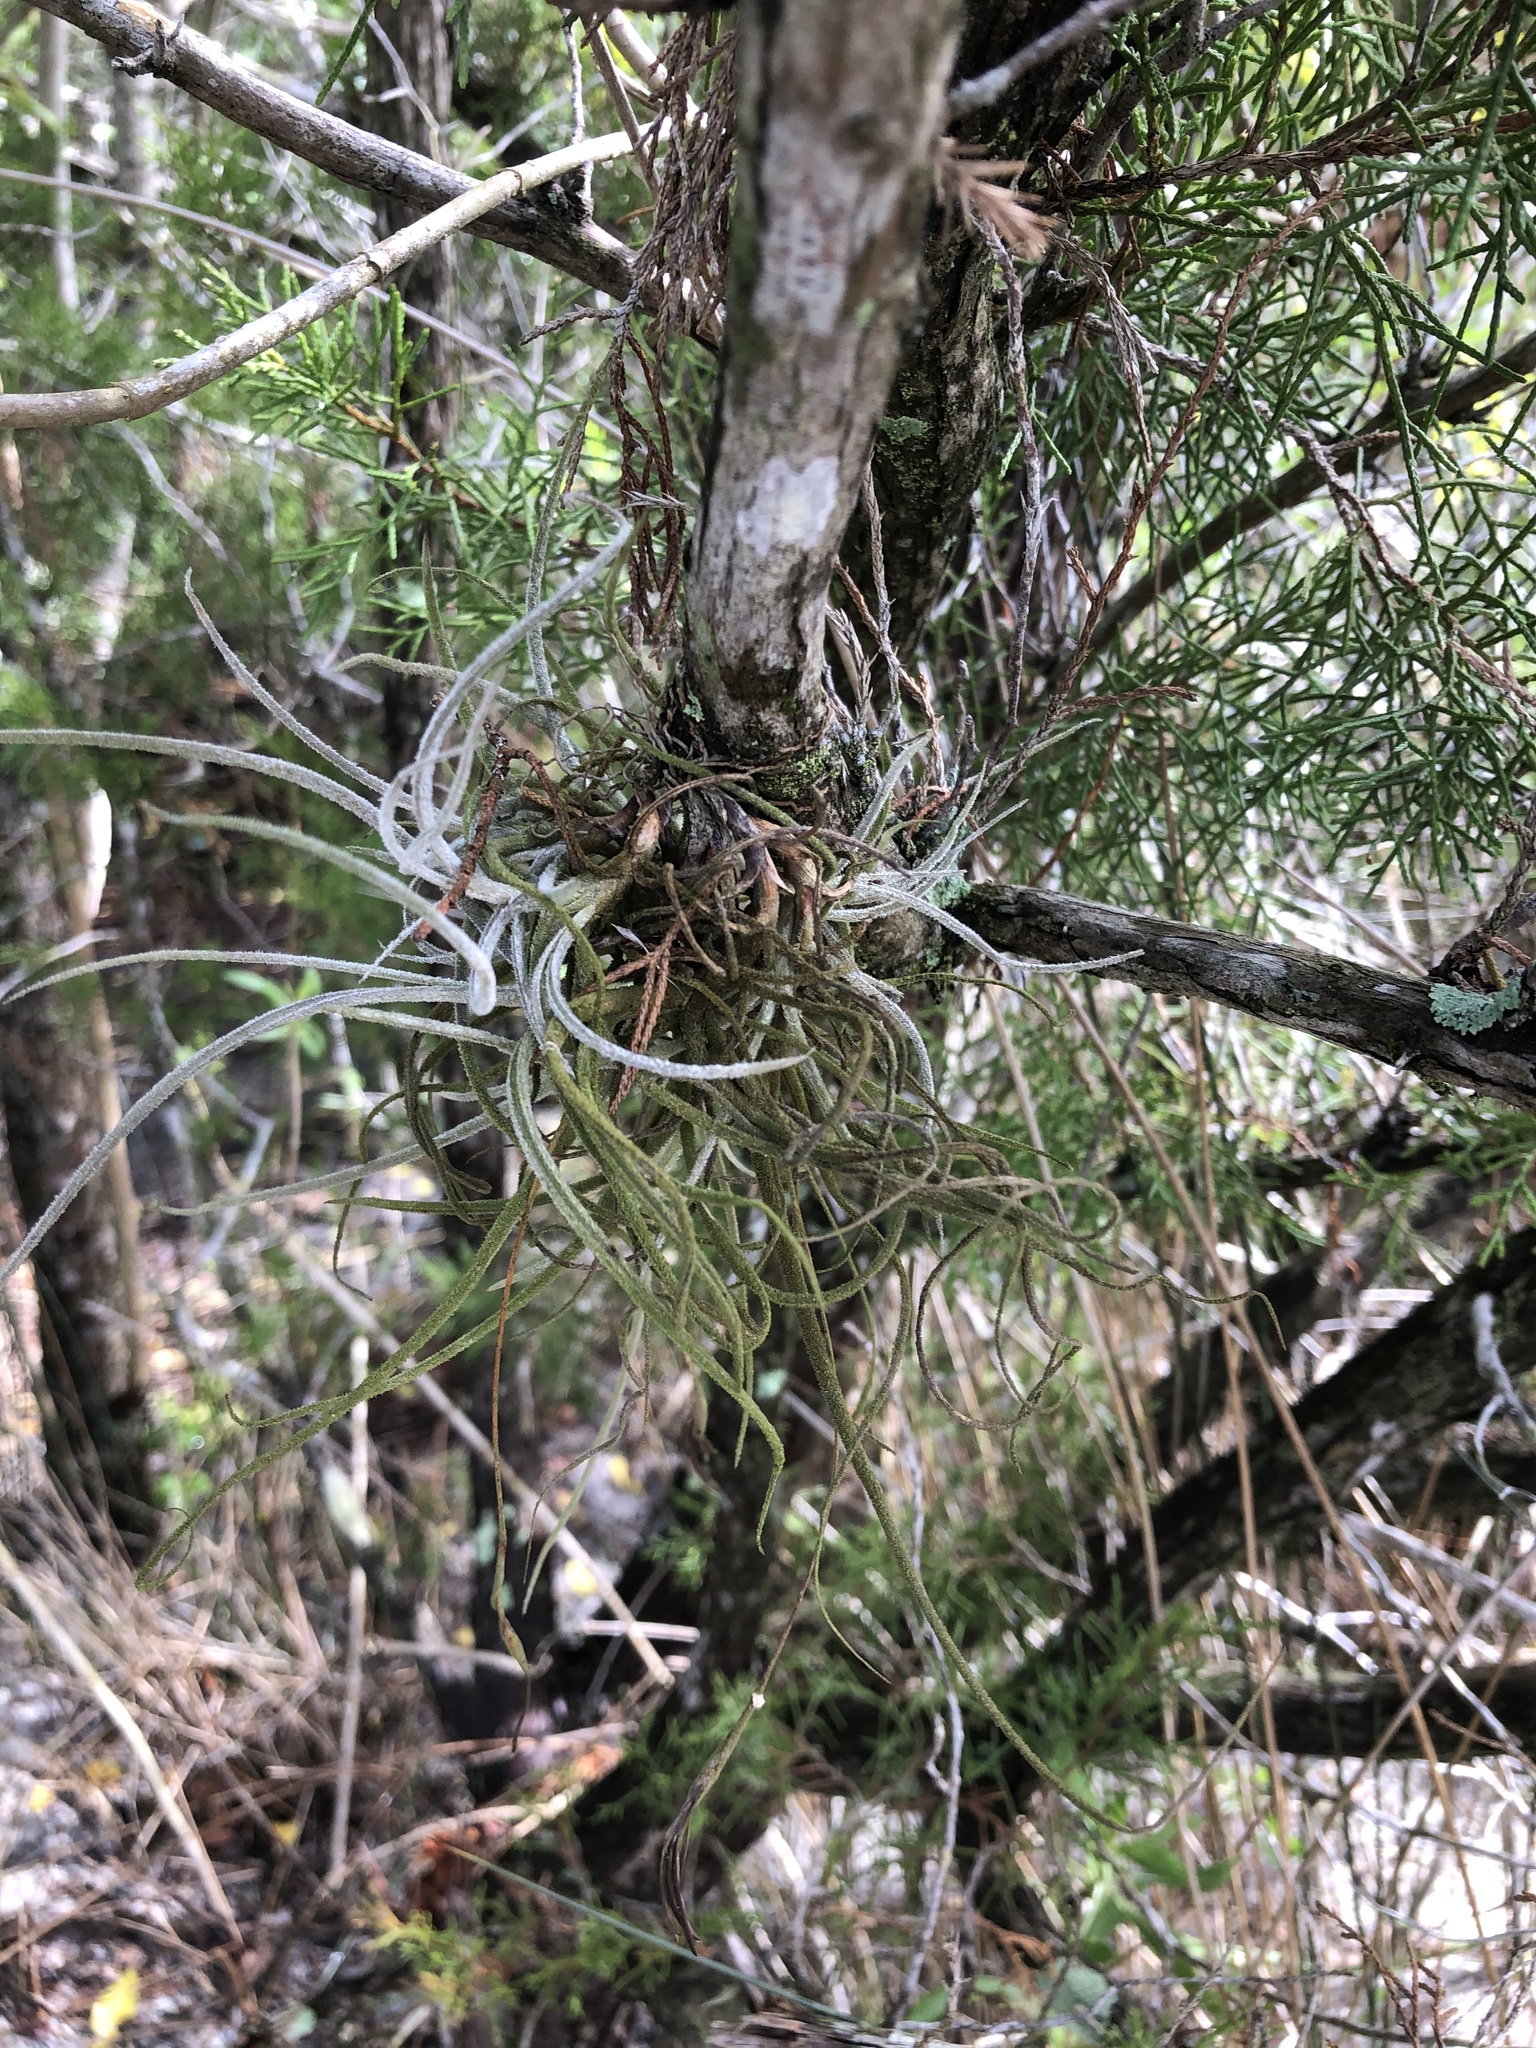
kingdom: Plantae
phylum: Tracheophyta
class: Liliopsida
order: Poales
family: Bromeliaceae
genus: Tillandsia
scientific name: Tillandsia recurvata
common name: Small ballmoss
